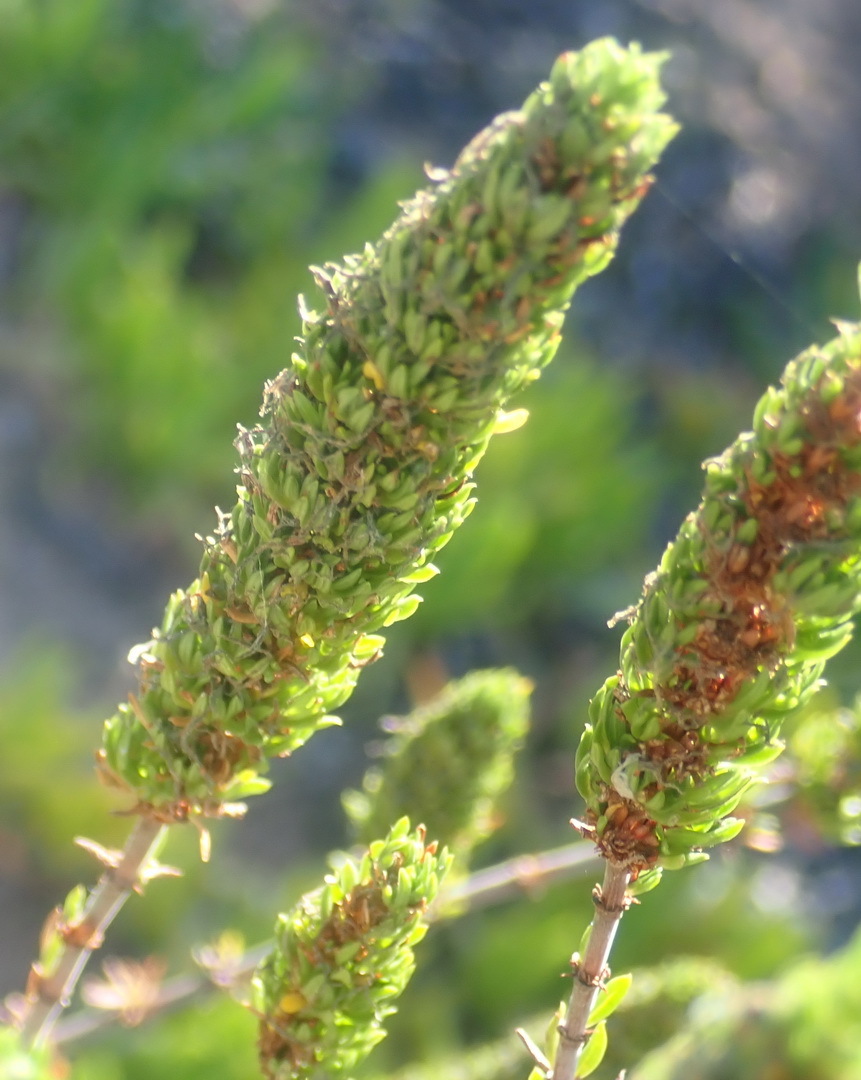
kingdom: Plantae
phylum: Tracheophyta
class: Magnoliopsida
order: Gentianales
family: Rubiaceae
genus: Anthospermum
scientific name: Anthospermum aethiopicum
